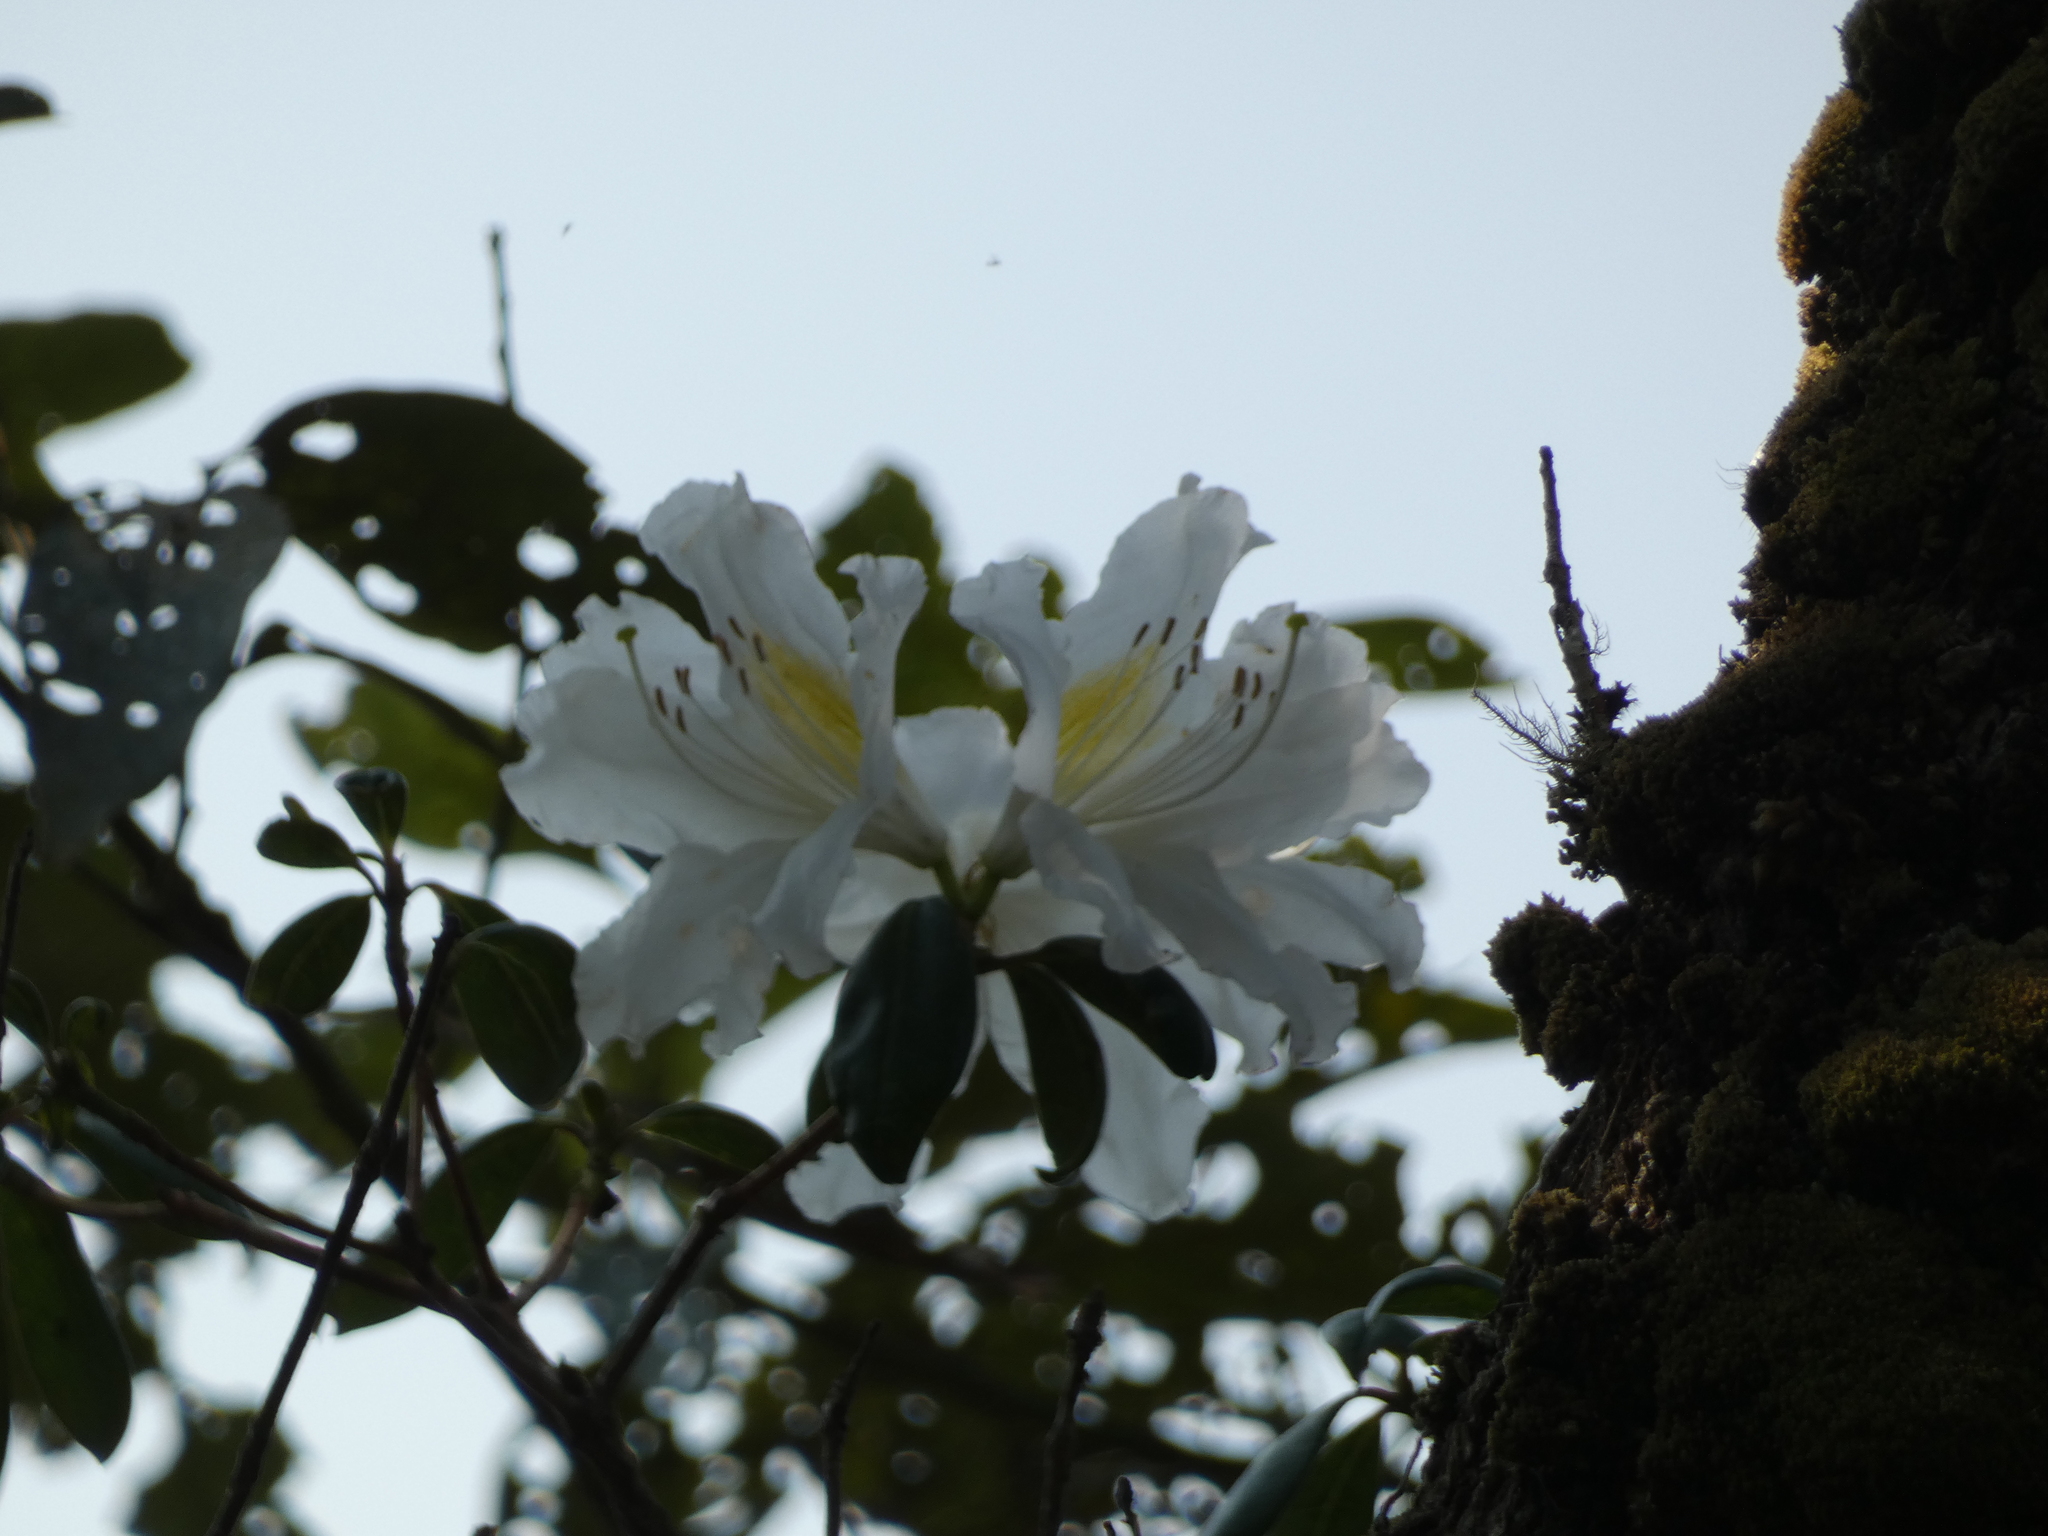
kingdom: Plantae
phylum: Tracheophyta
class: Magnoliopsida
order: Ericales
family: Ericaceae
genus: Rhododendron
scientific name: Rhododendron veitchianum
